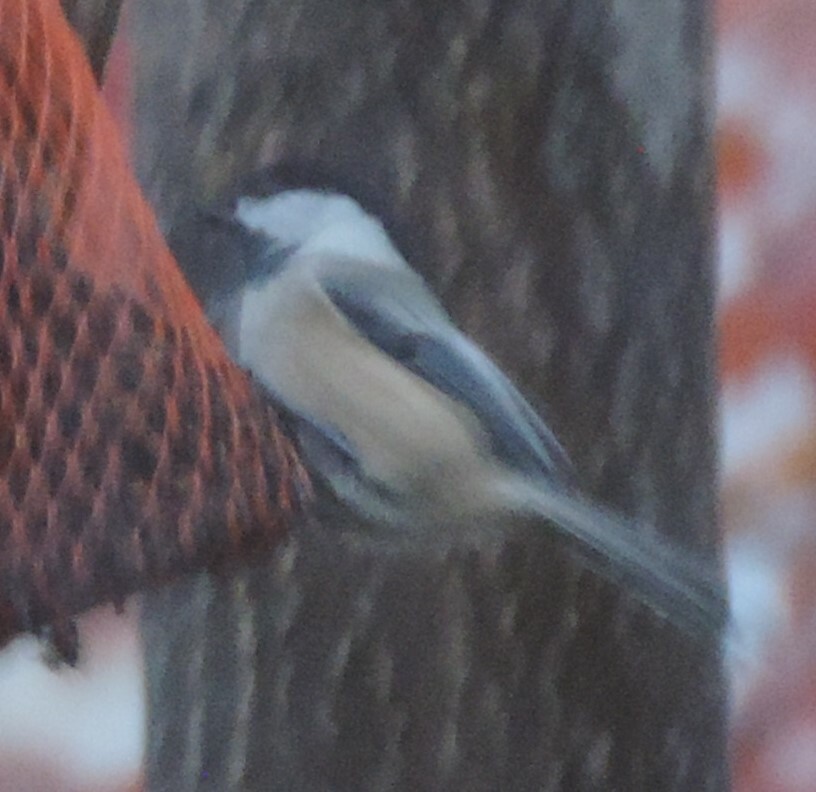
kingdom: Animalia
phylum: Chordata
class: Aves
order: Passeriformes
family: Paridae
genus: Poecile
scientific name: Poecile atricapillus
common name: Black-capped chickadee
